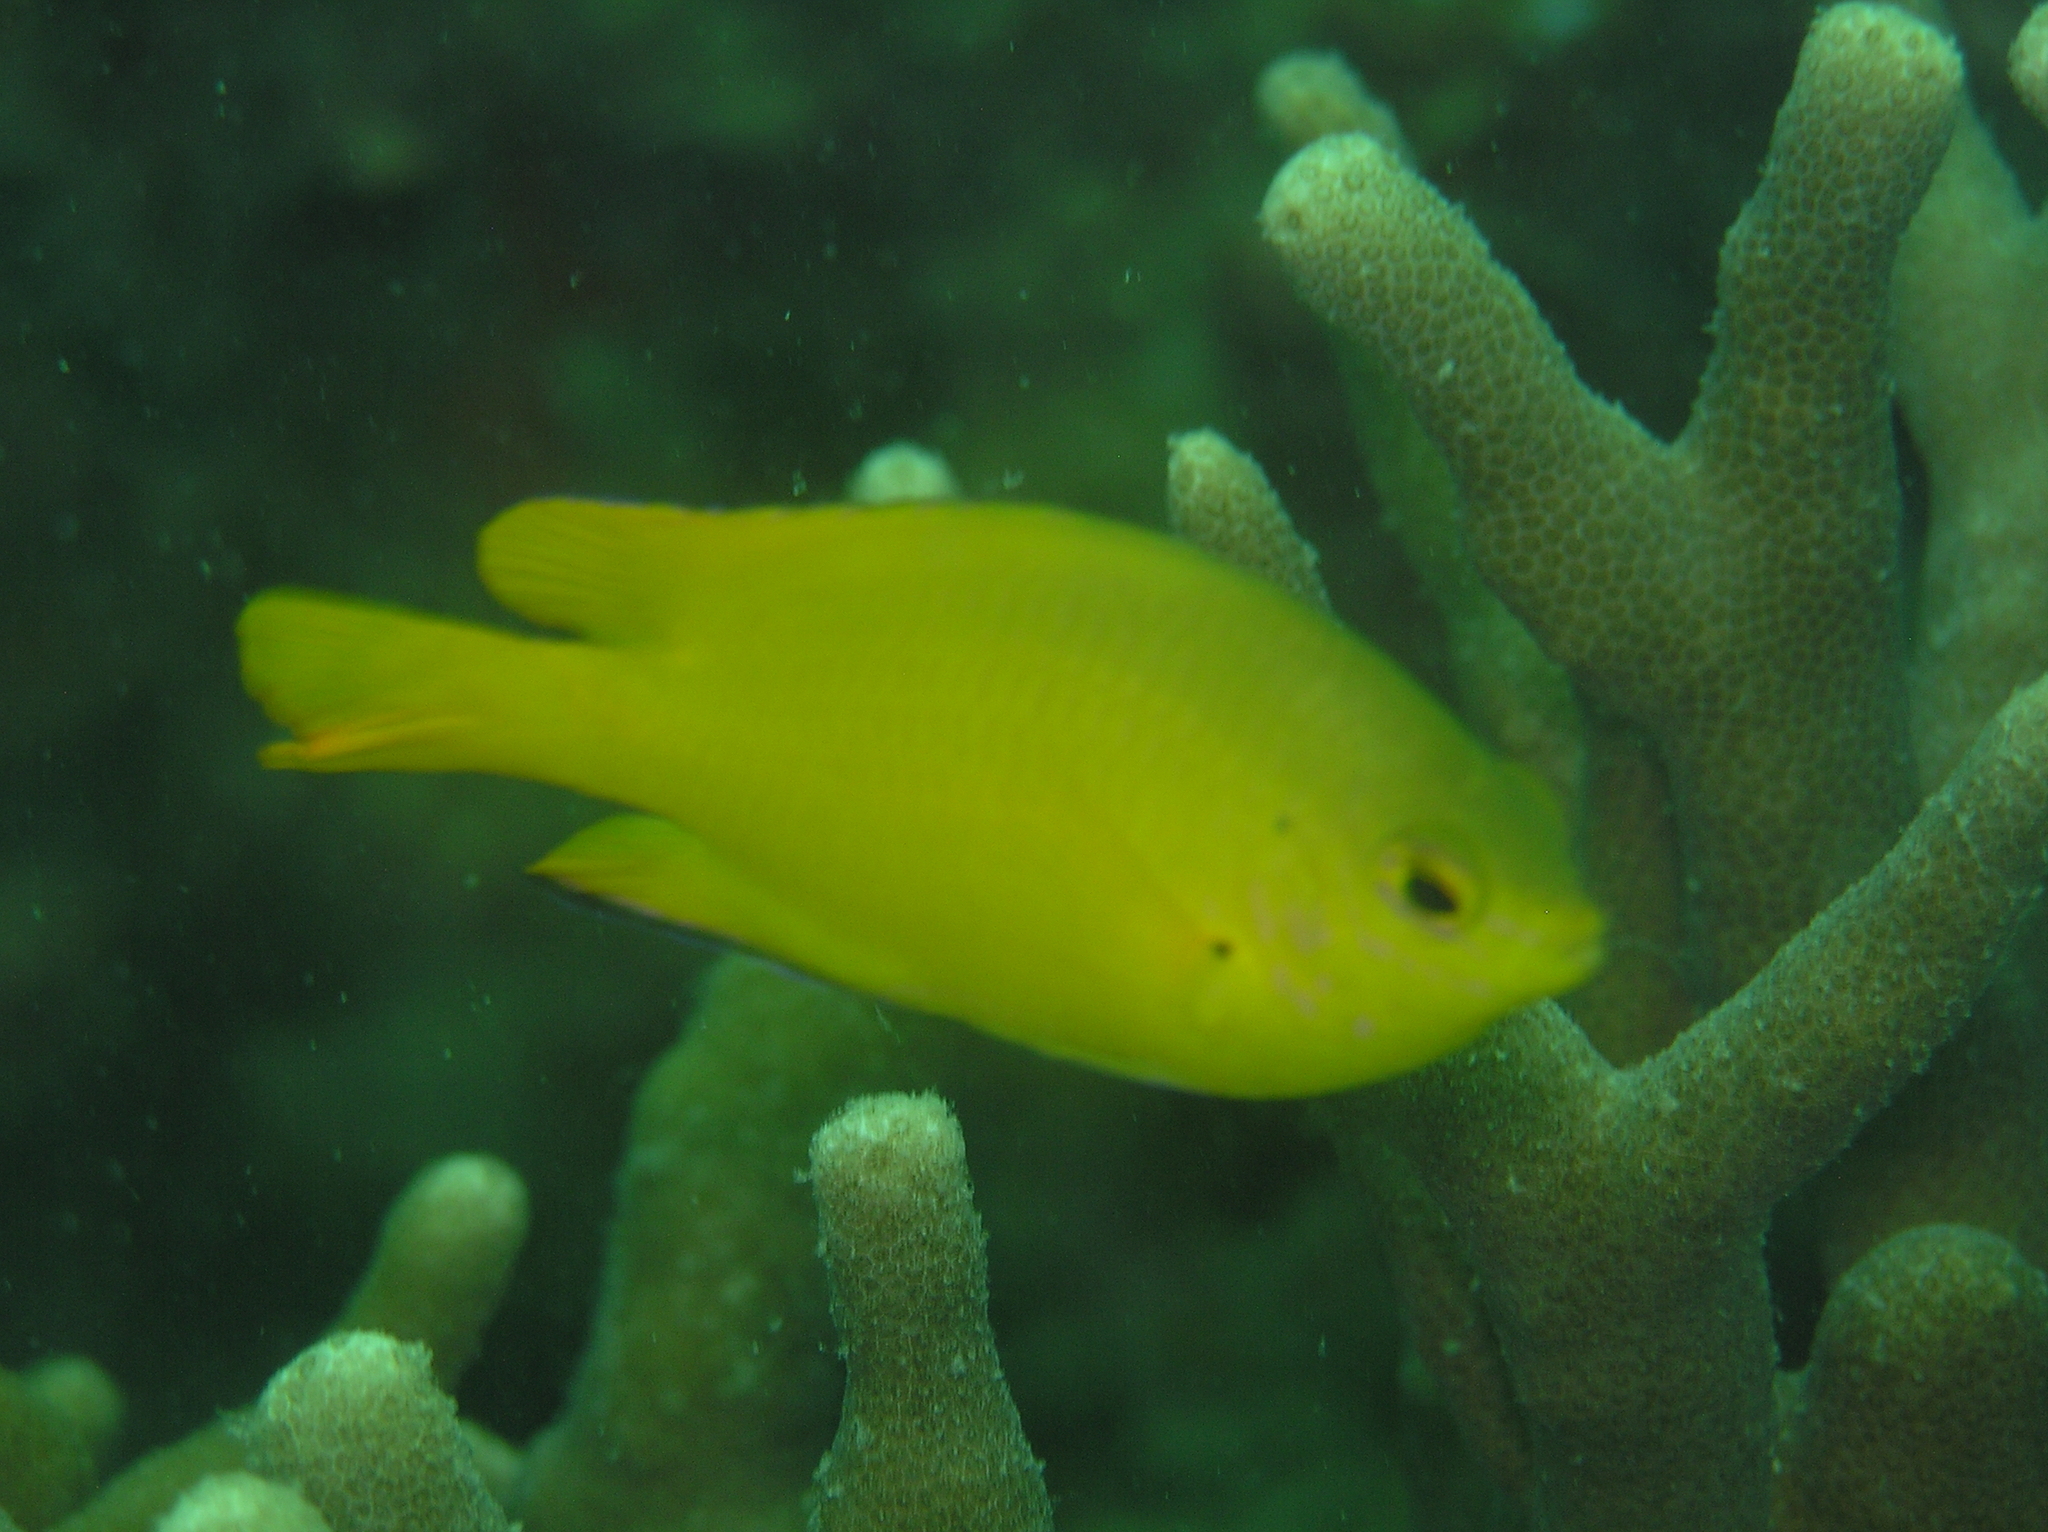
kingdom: Animalia
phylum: Chordata
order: Perciformes
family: Pomacentridae
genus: Pomacentrus
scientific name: Pomacentrus moluccensis
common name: Lemon damsel
